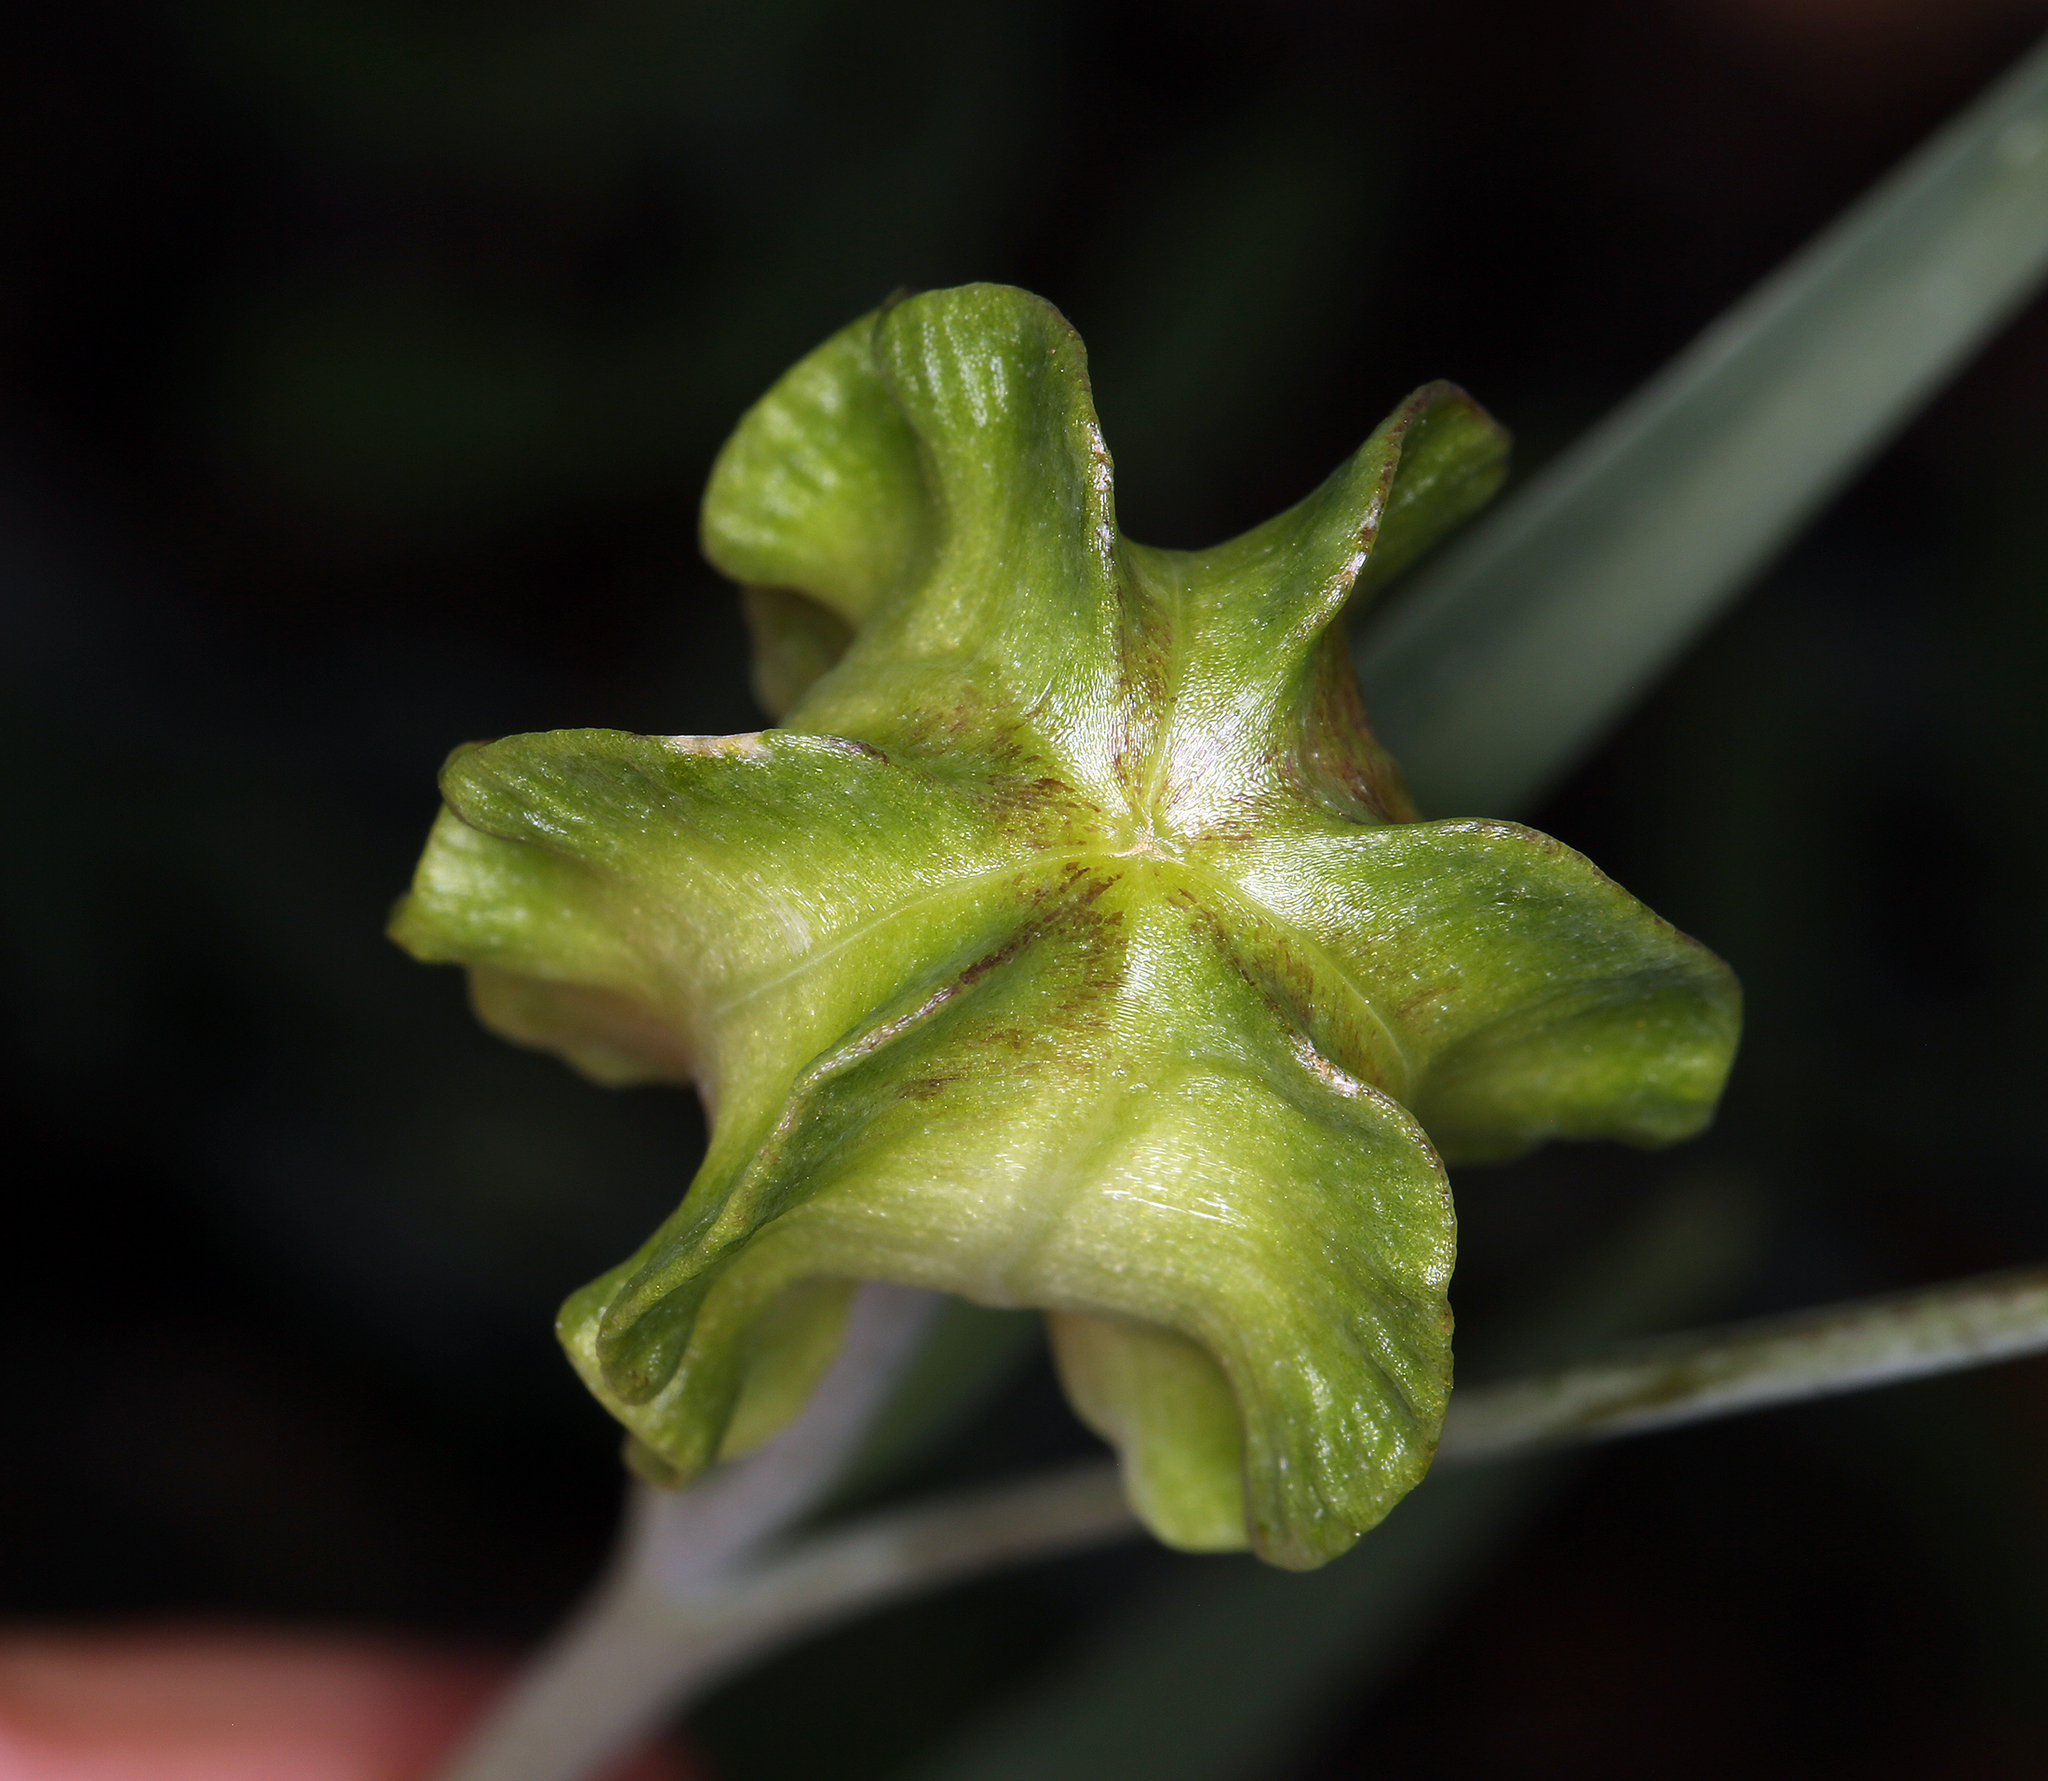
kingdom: Plantae
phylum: Tracheophyta
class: Liliopsida
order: Liliales
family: Liliaceae
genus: Fritillaria
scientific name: Fritillaria affinis
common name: Ojai fritillary
